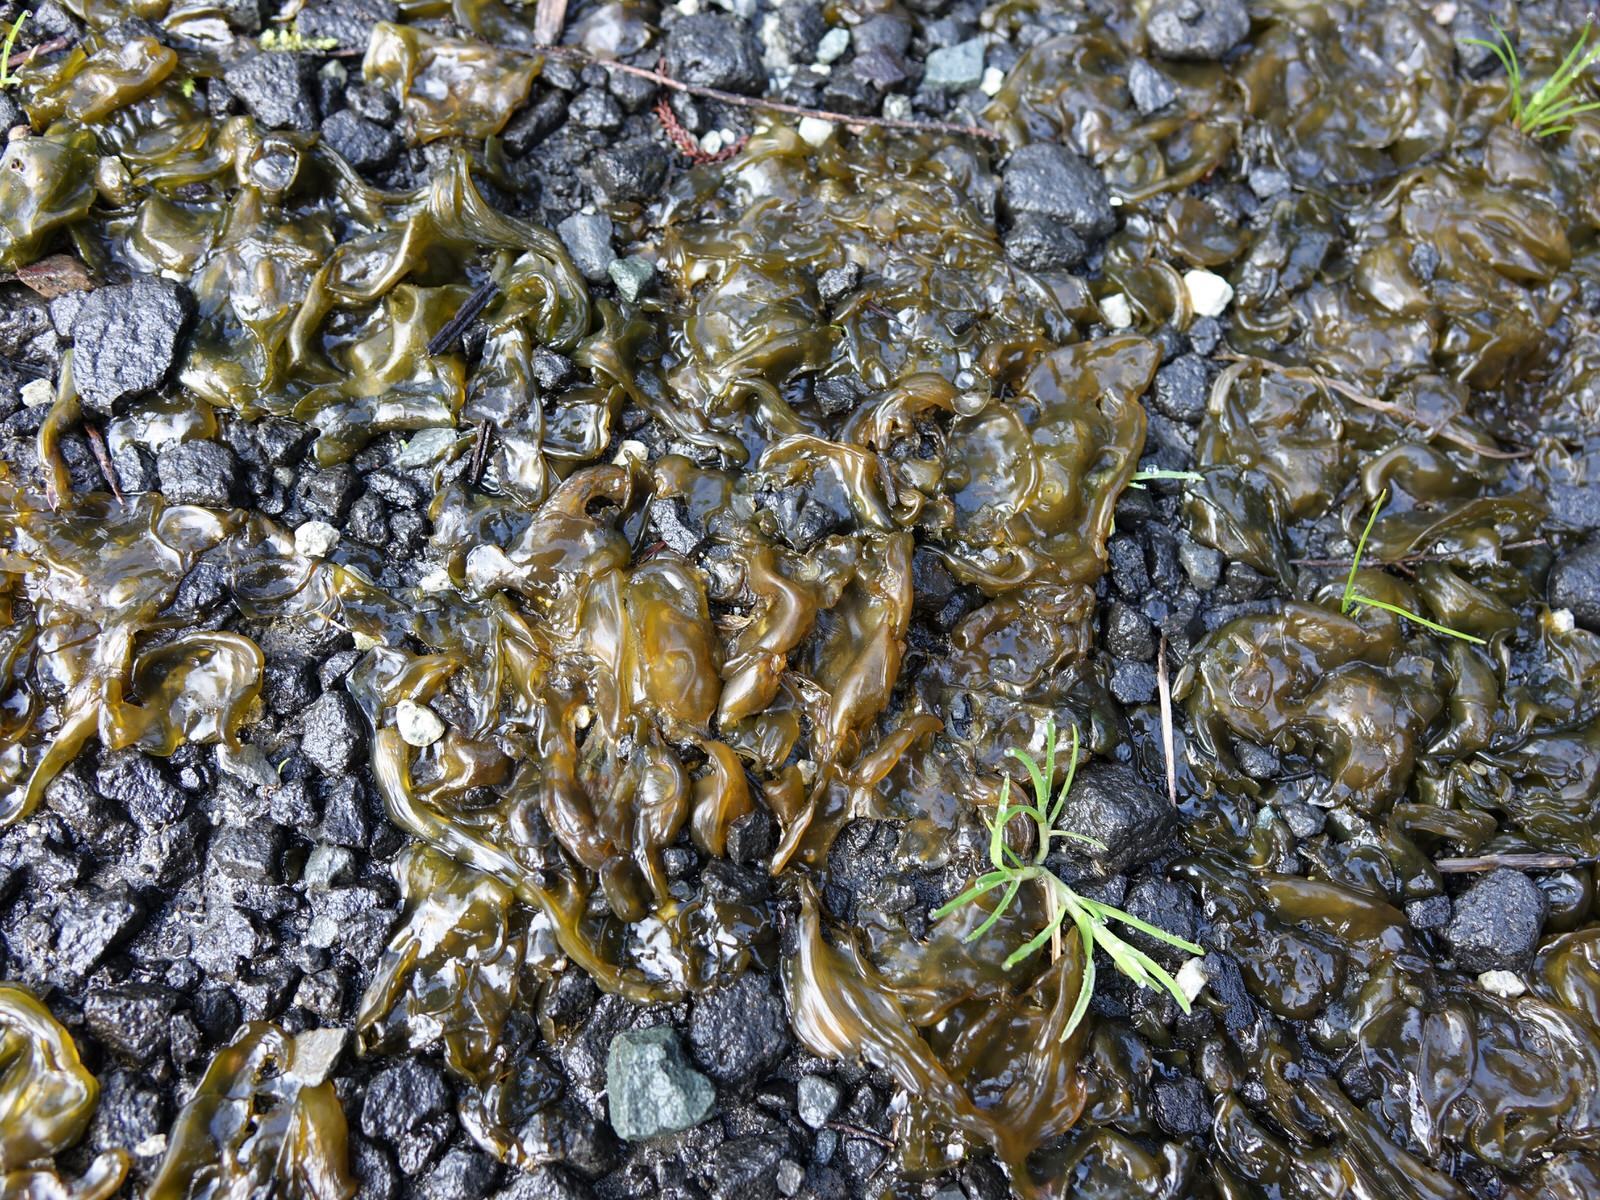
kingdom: Bacteria
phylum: Cyanobacteria
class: Cyanobacteriia
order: Cyanobacteriales
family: Nostocaceae
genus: Nostoc
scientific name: Nostoc commune
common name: Star jelly
